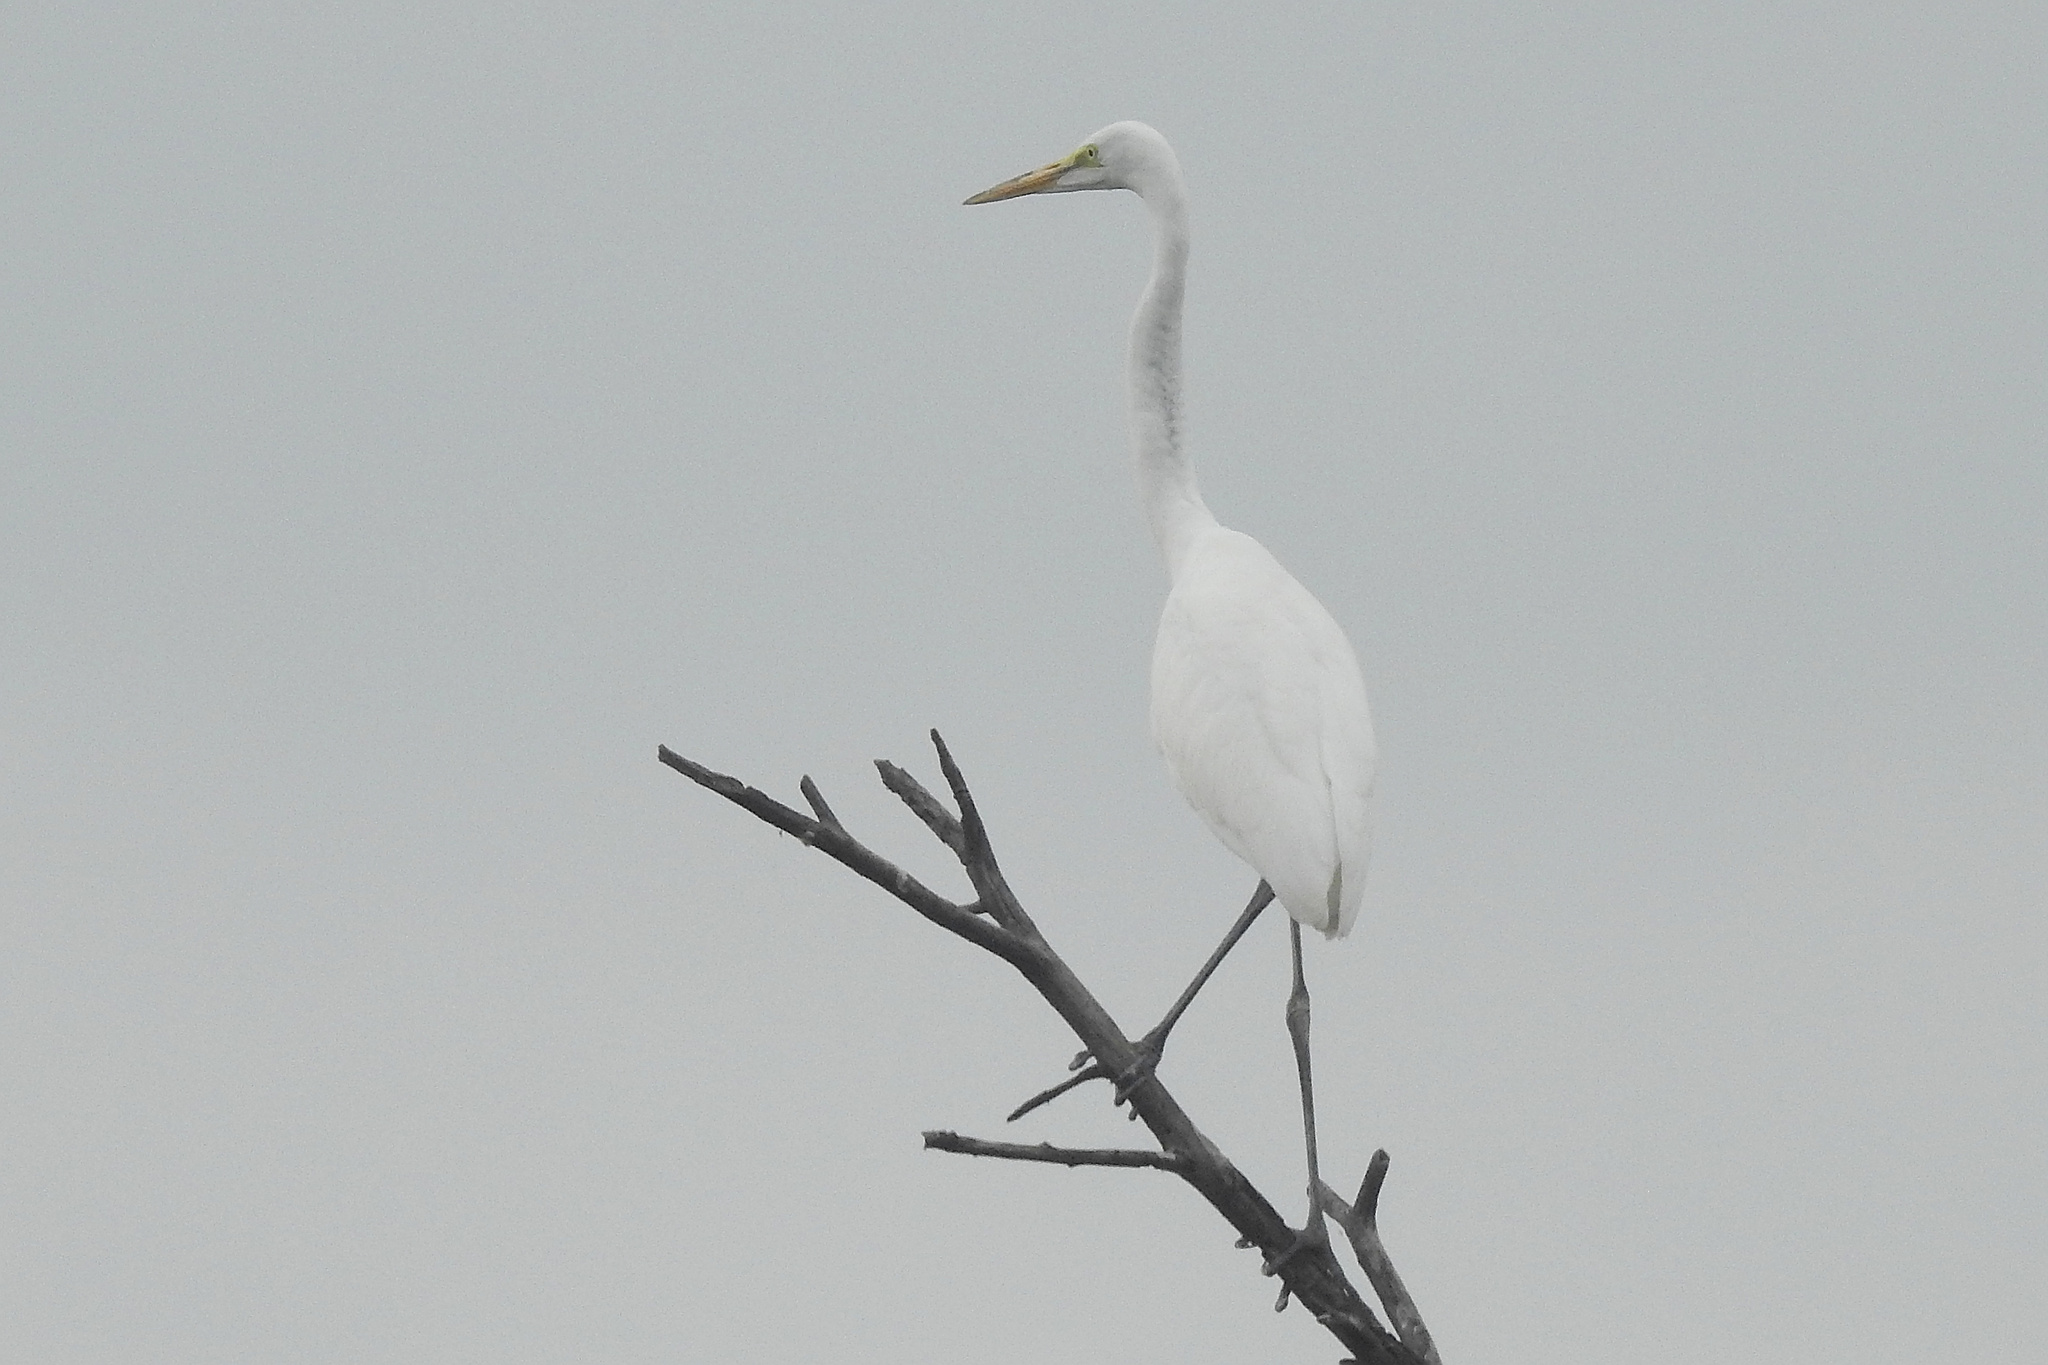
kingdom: Animalia
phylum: Chordata
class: Aves
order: Pelecaniformes
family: Ardeidae
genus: Ardea
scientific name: Ardea alba
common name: Great egret
